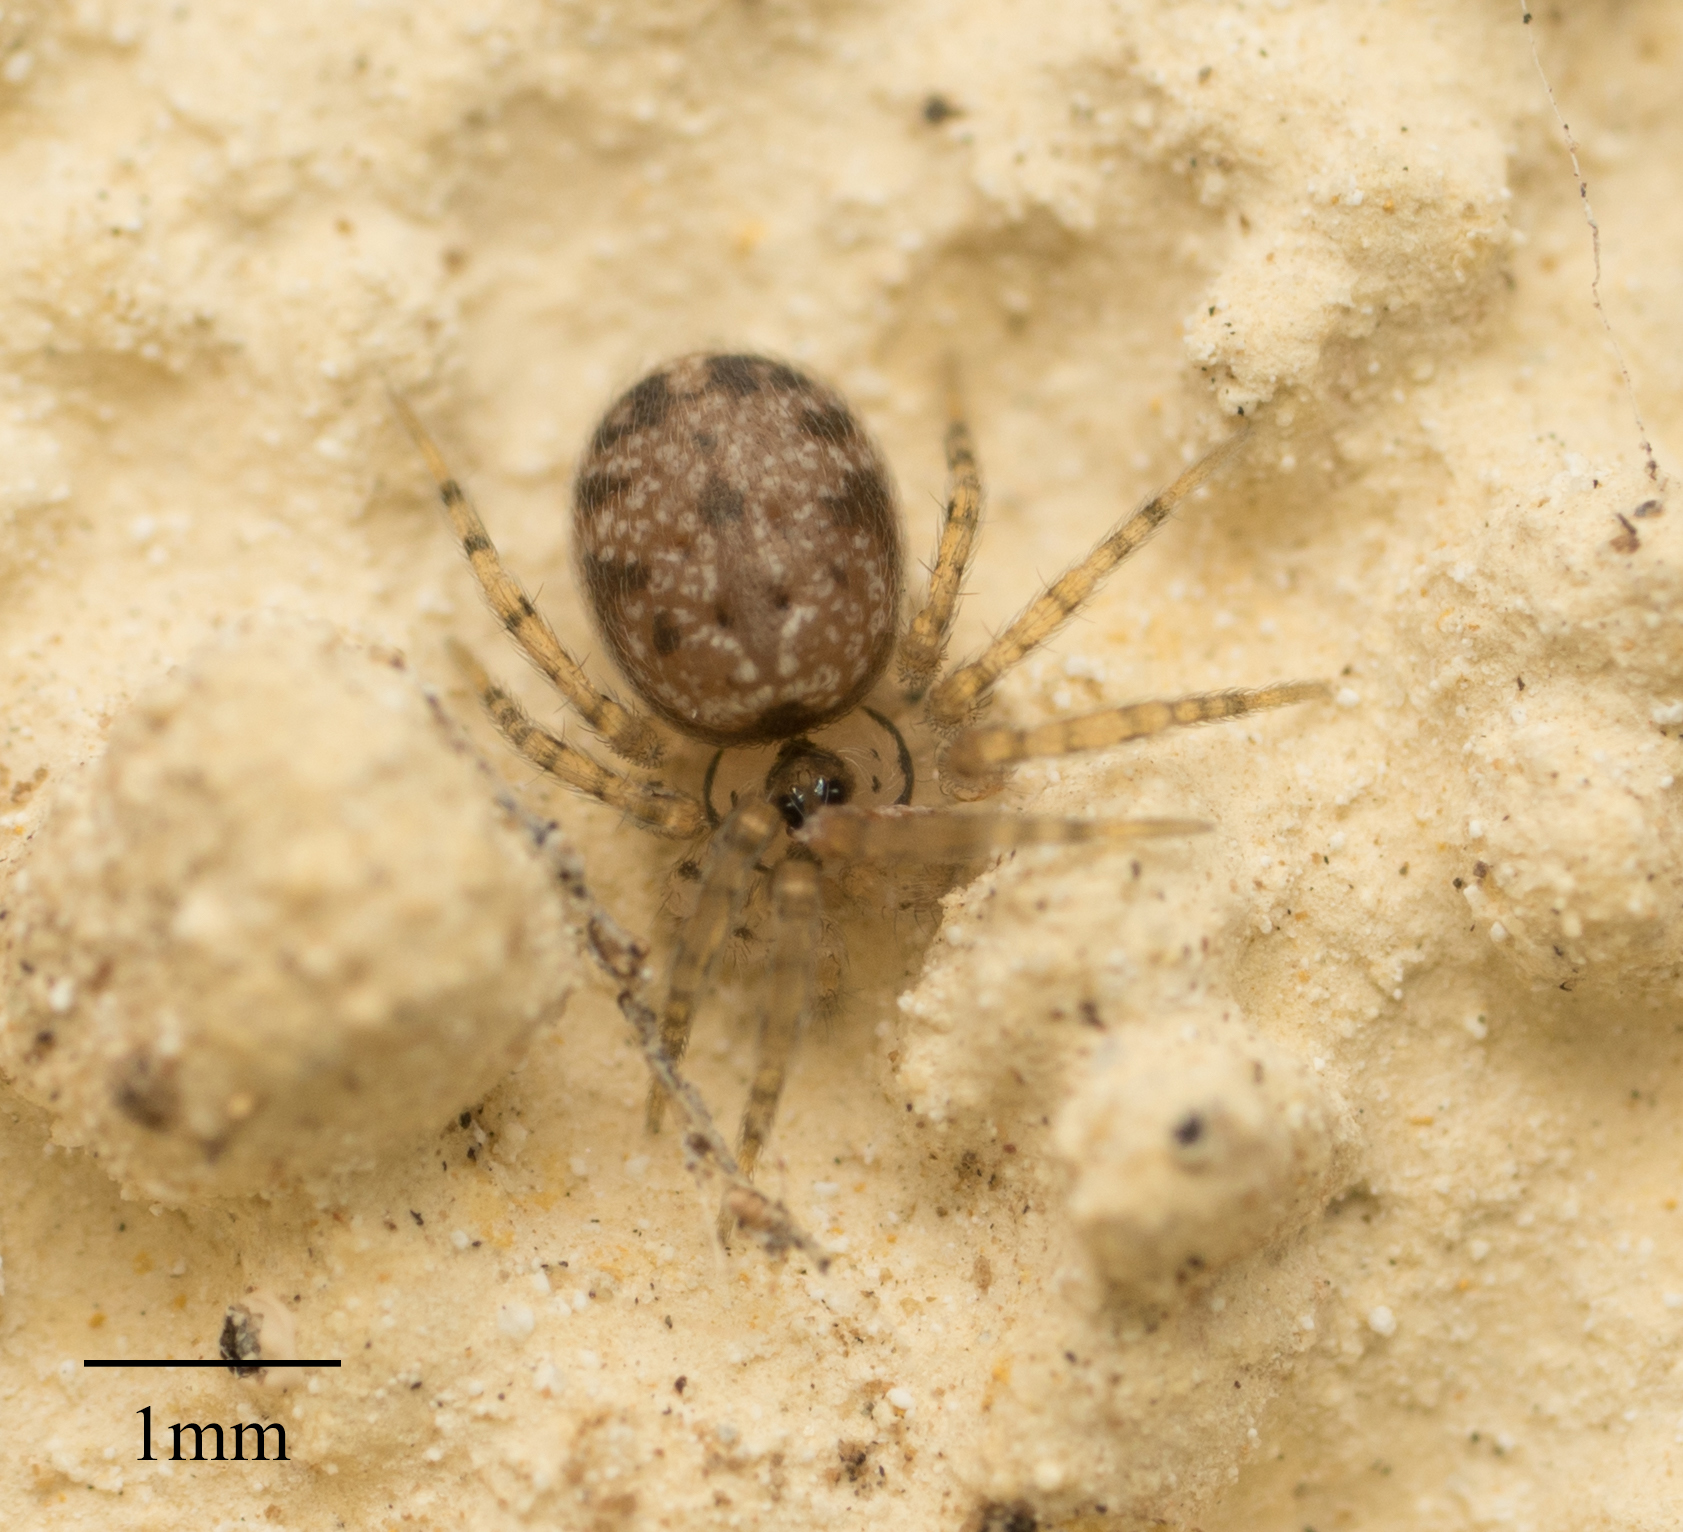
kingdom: Animalia
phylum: Arthropoda
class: Arachnida
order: Araneae
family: Oecobiidae
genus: Oecobius
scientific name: Oecobius navus
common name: Flatmesh weaver
